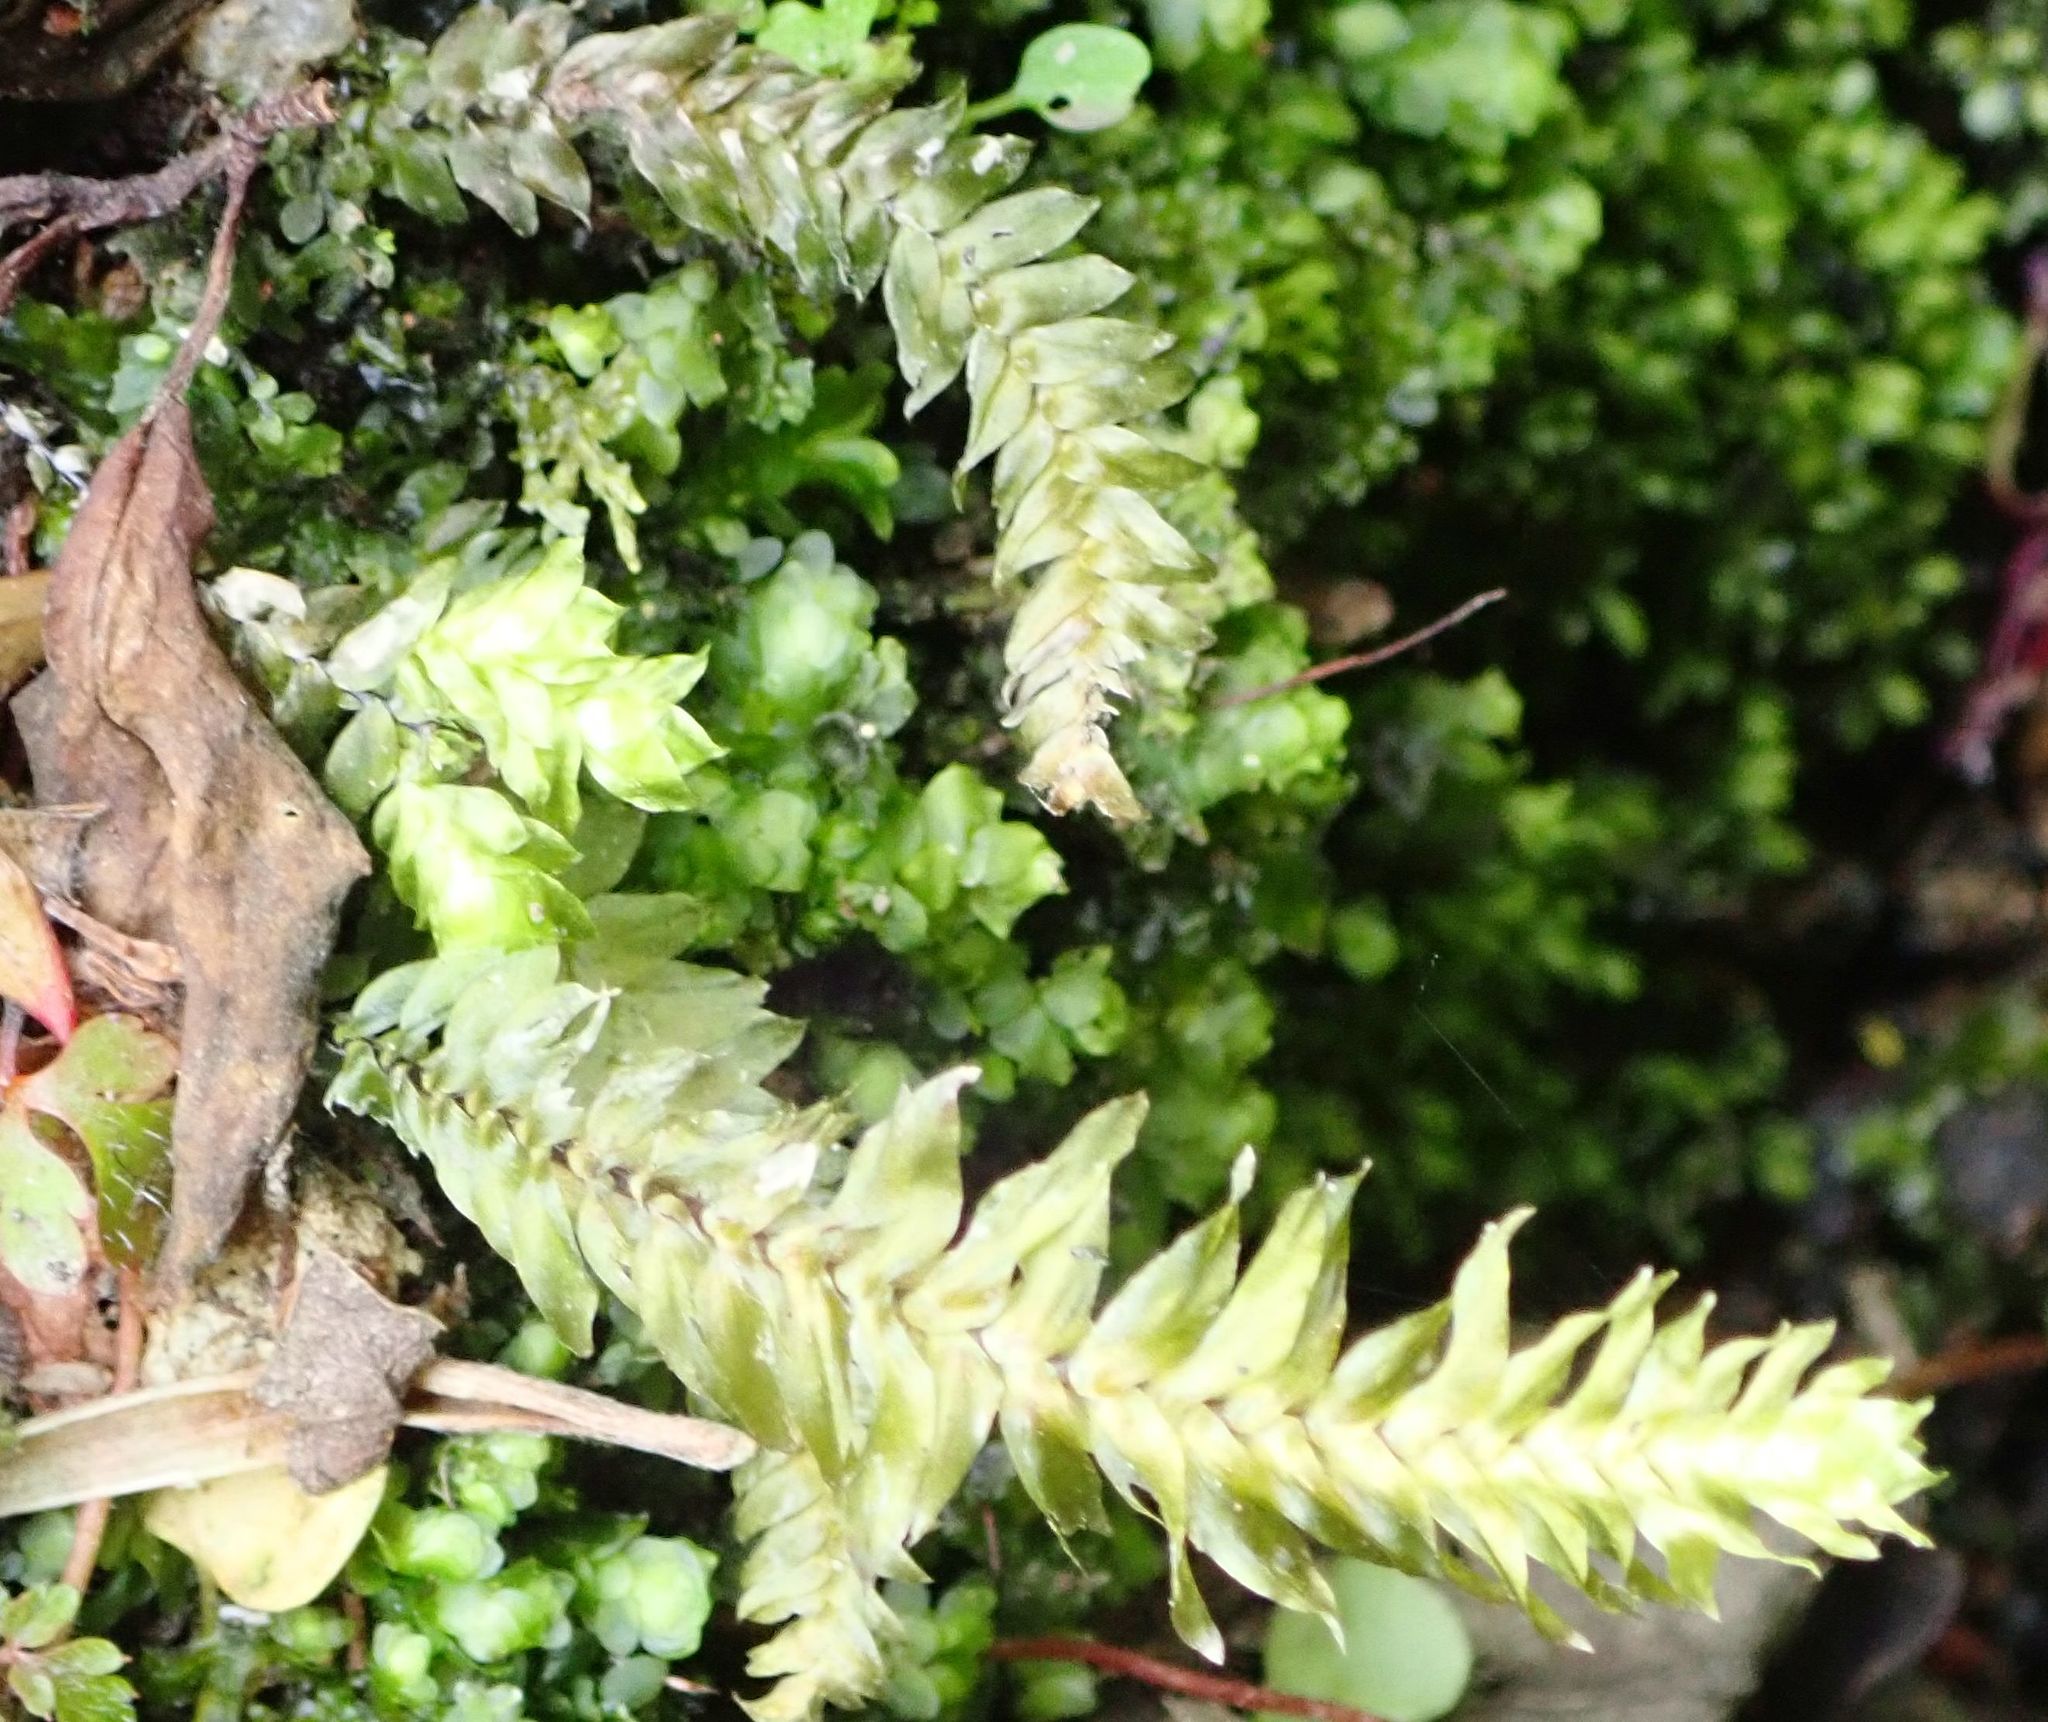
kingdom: Plantae
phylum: Bryophyta
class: Bryopsida
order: Hypopterygiales
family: Hypopterygiaceae
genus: Cyathophorum
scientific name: Cyathophorum bulbosum
